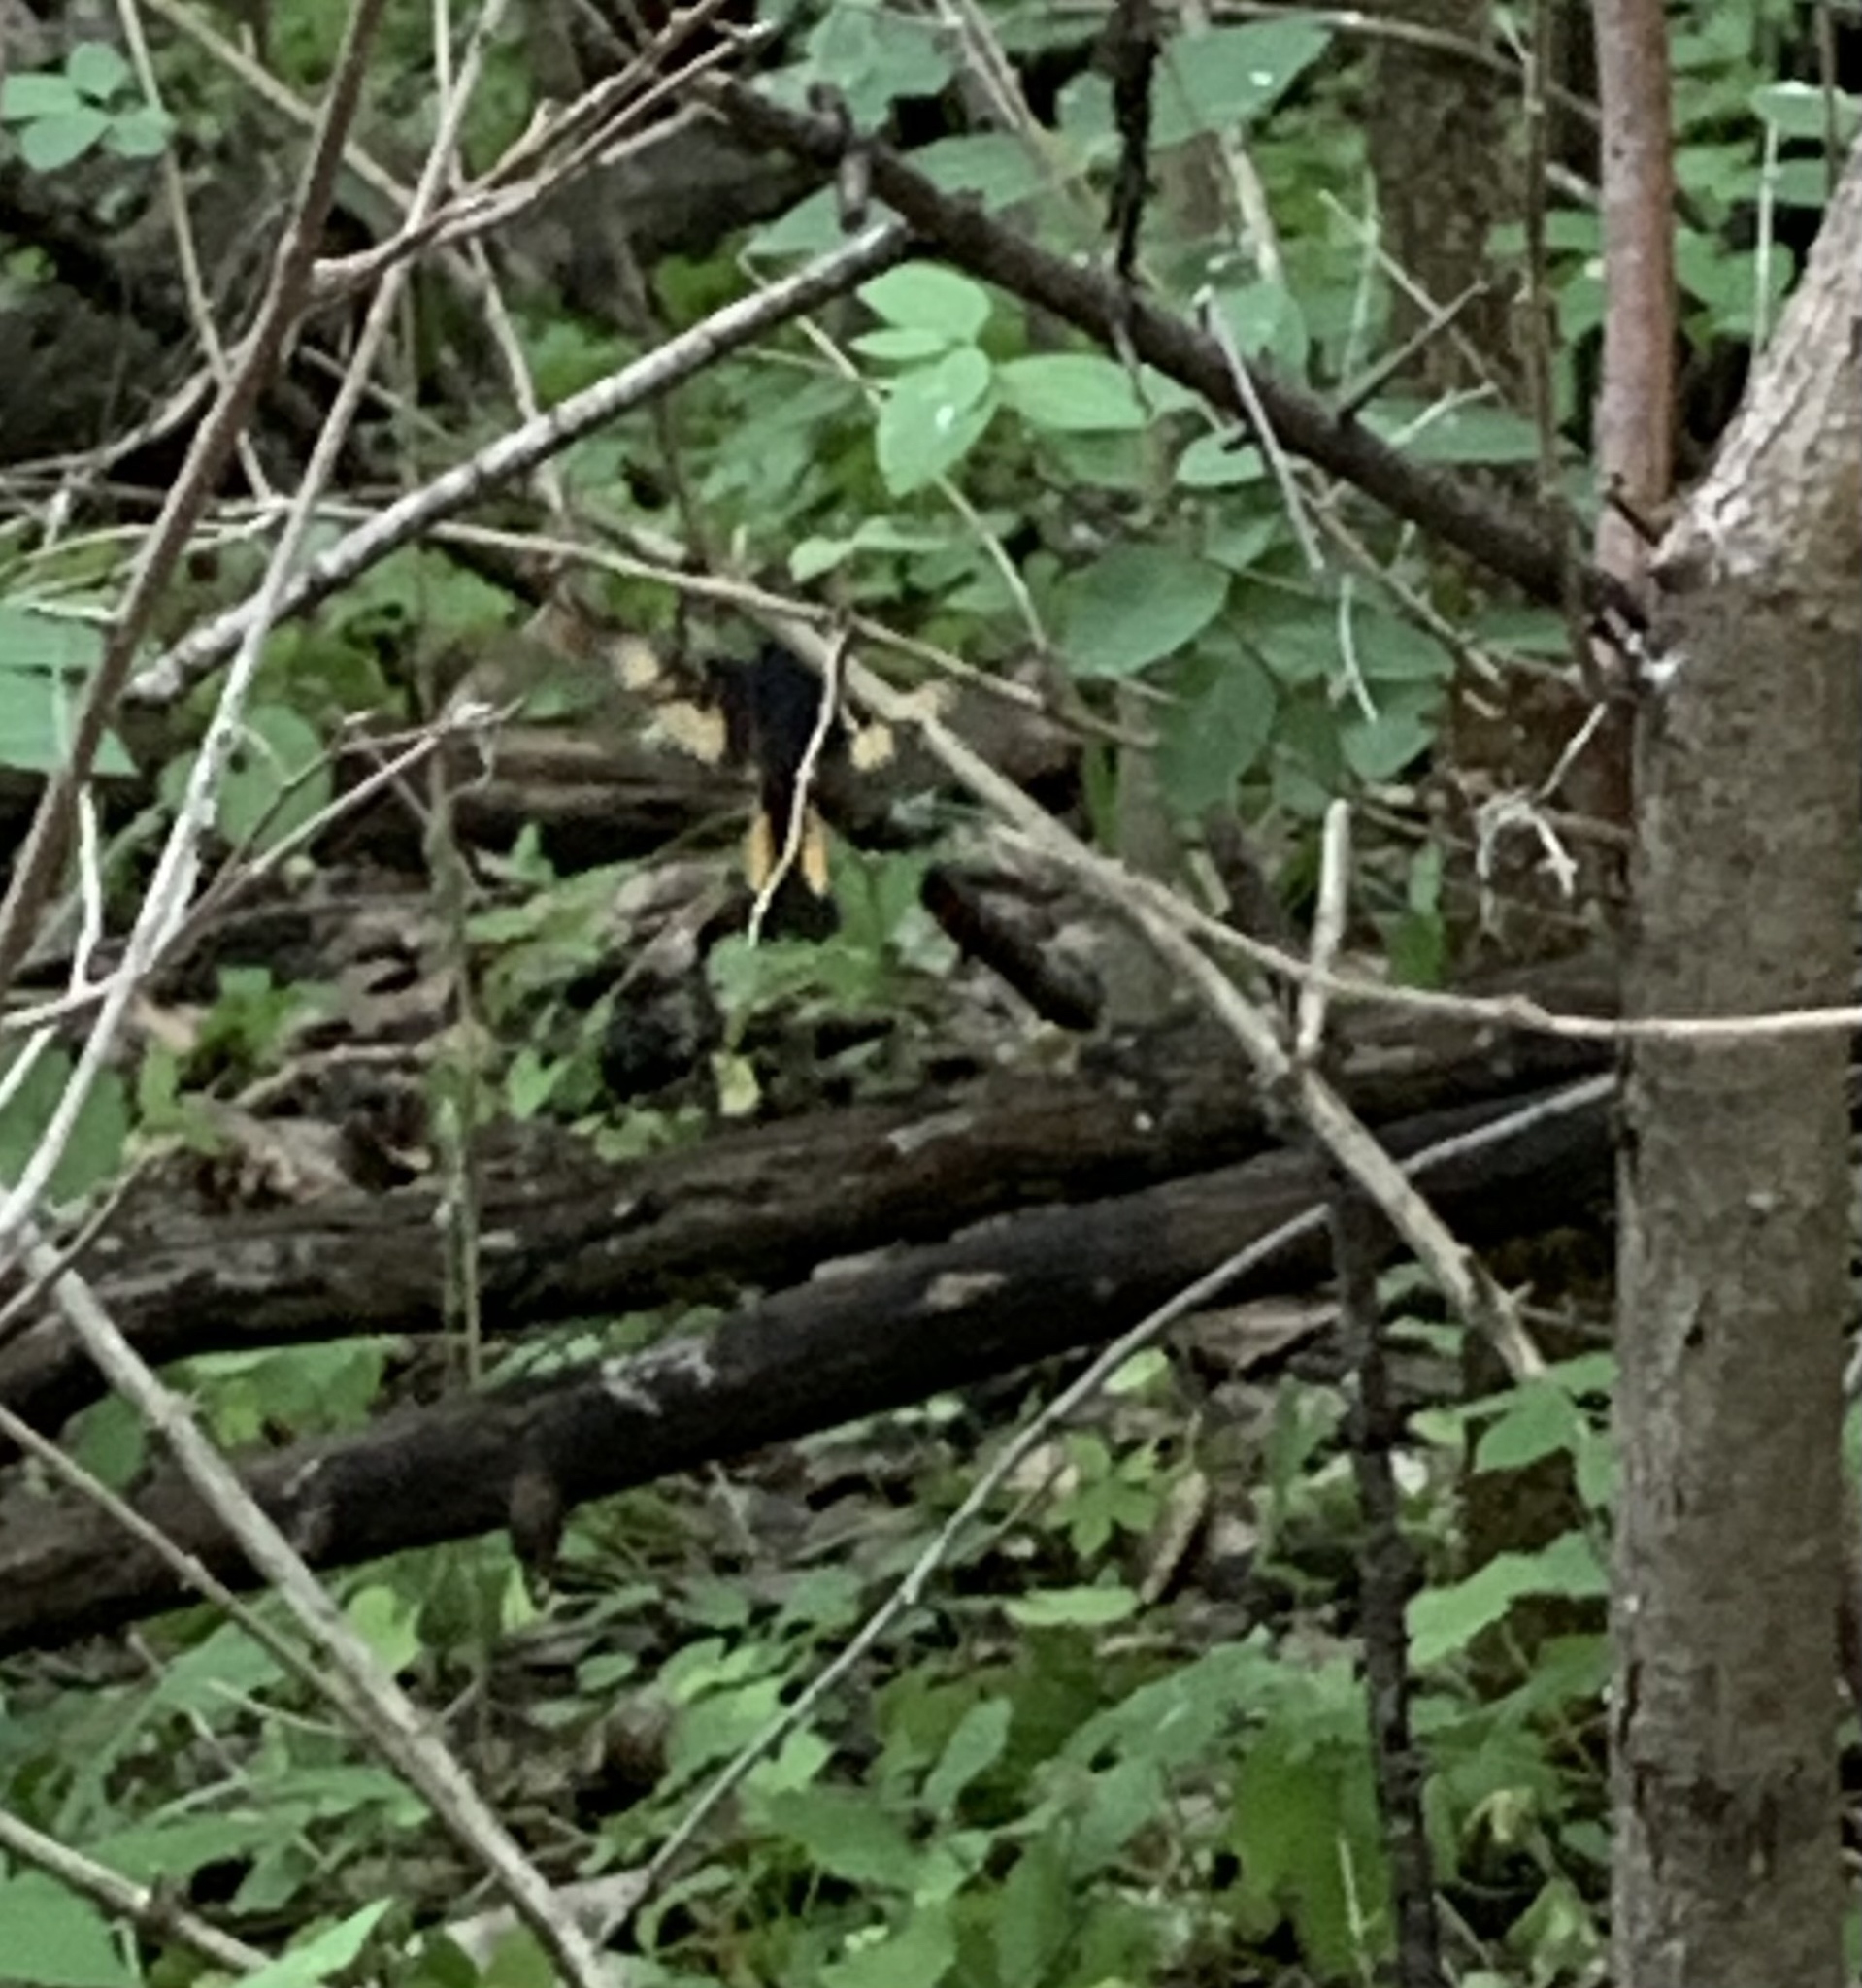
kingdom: Animalia
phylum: Chordata
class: Aves
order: Passeriformes
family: Parulidae
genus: Setophaga
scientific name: Setophaga ruticilla
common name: American redstart
